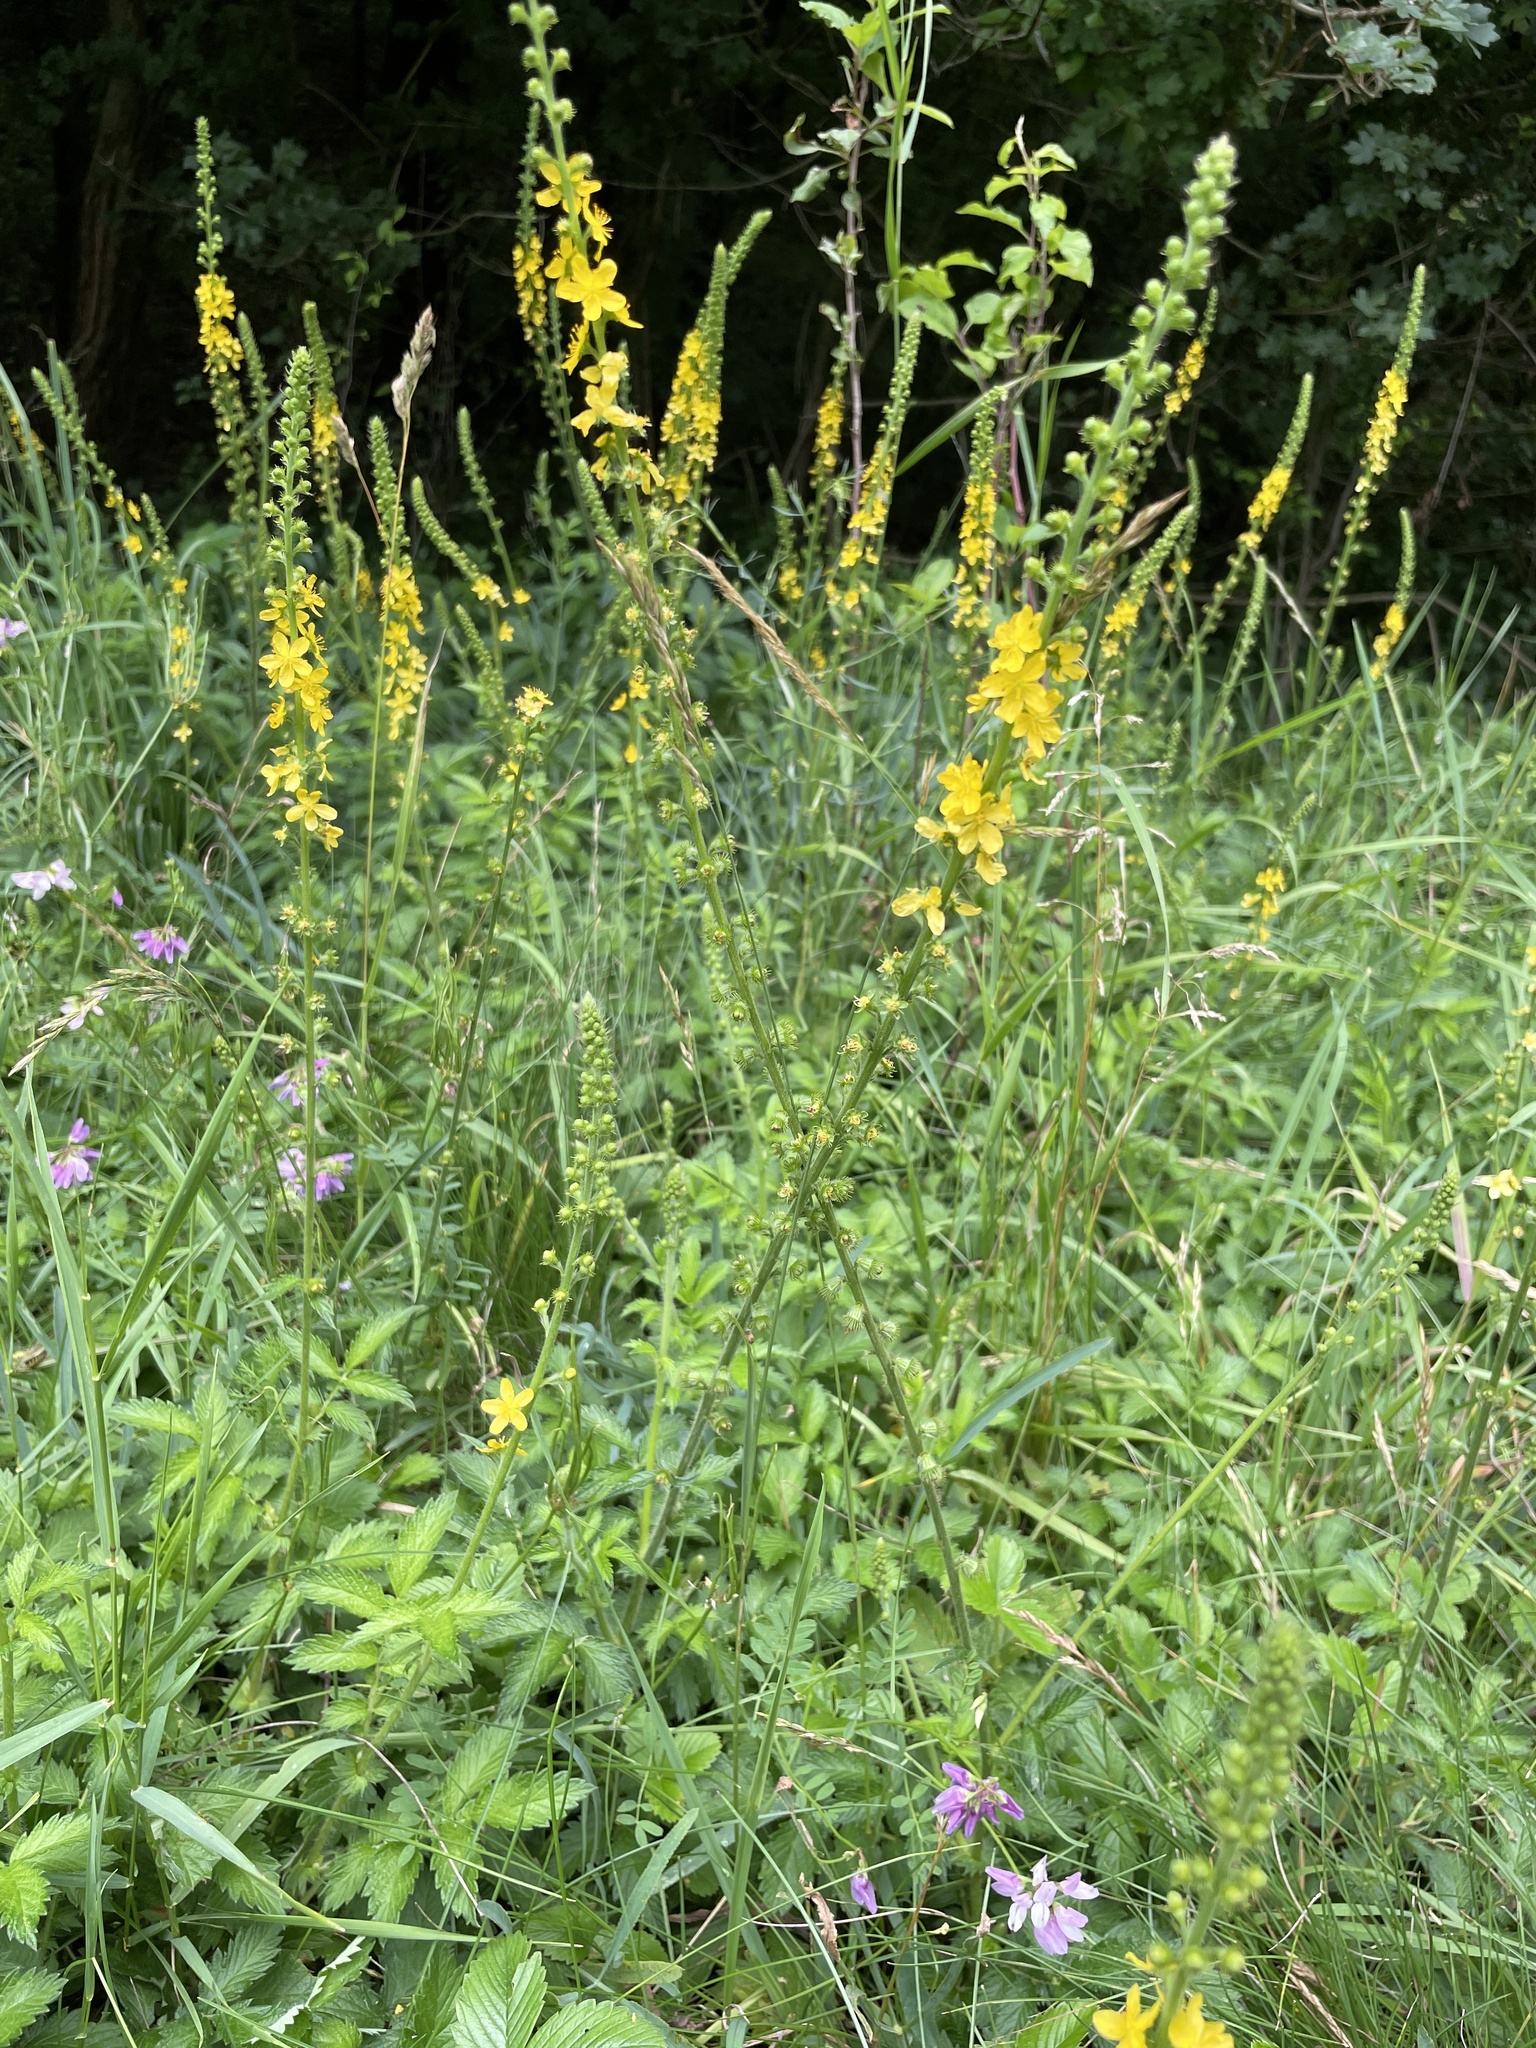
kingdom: Plantae
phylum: Tracheophyta
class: Magnoliopsida
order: Rosales
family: Rosaceae
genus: Agrimonia
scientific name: Agrimonia eupatoria
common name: Agrimony
